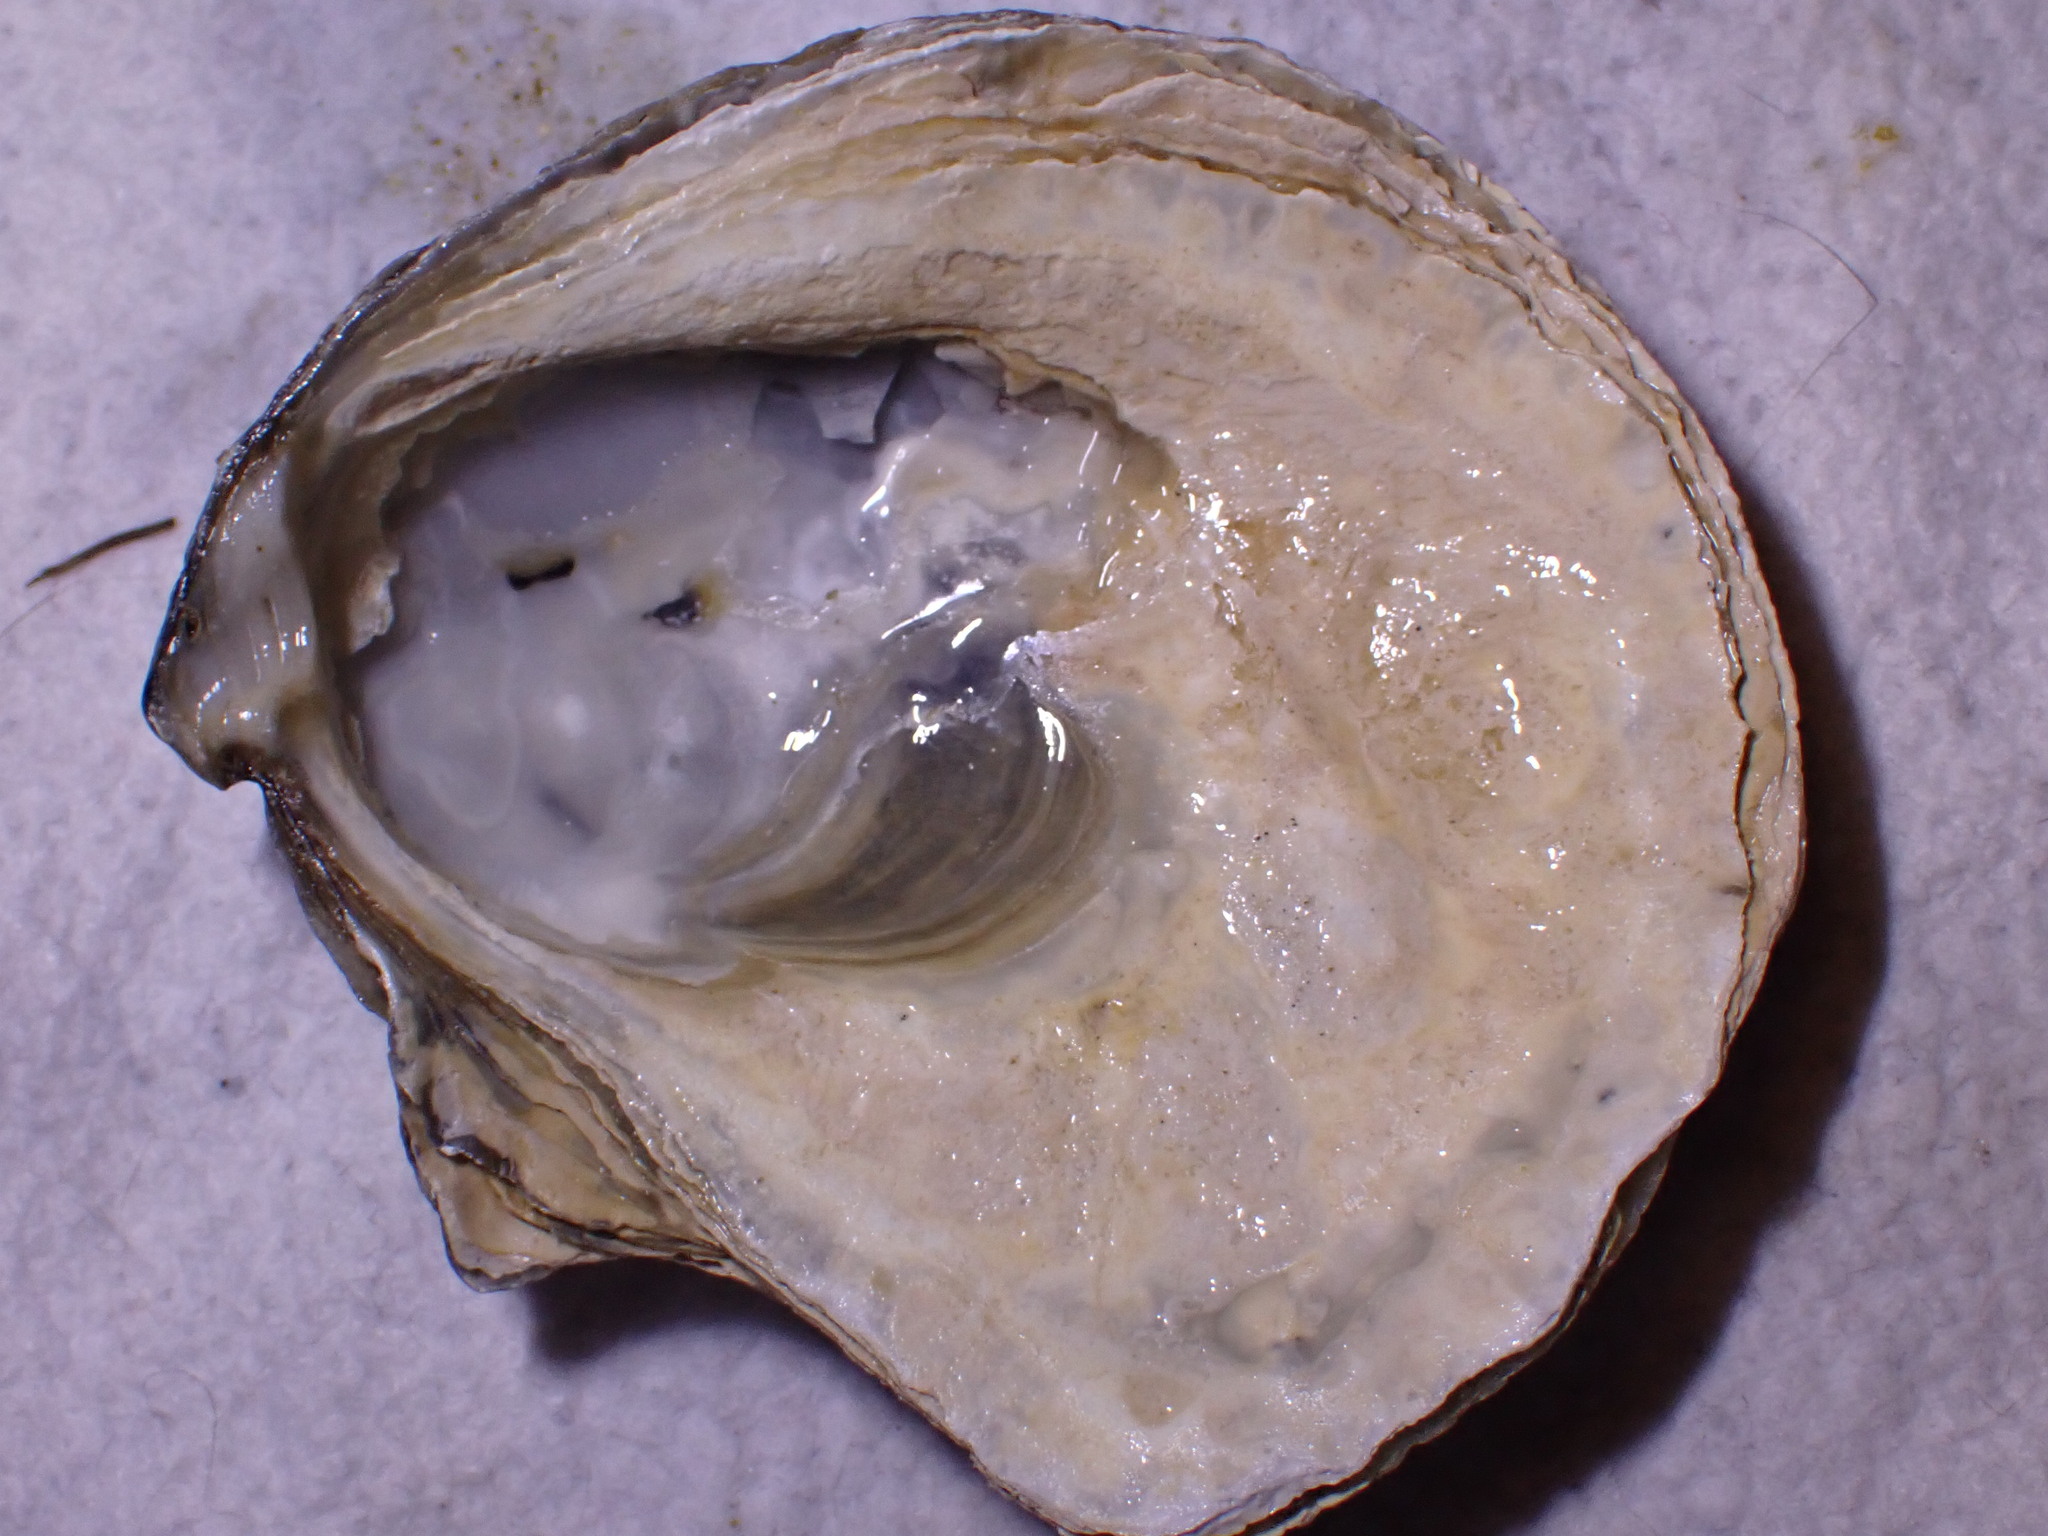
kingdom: Animalia
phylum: Mollusca
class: Bivalvia
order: Ostreida
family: Ostreidae
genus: Ostrea
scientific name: Ostrea edulis
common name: Flat oyster
